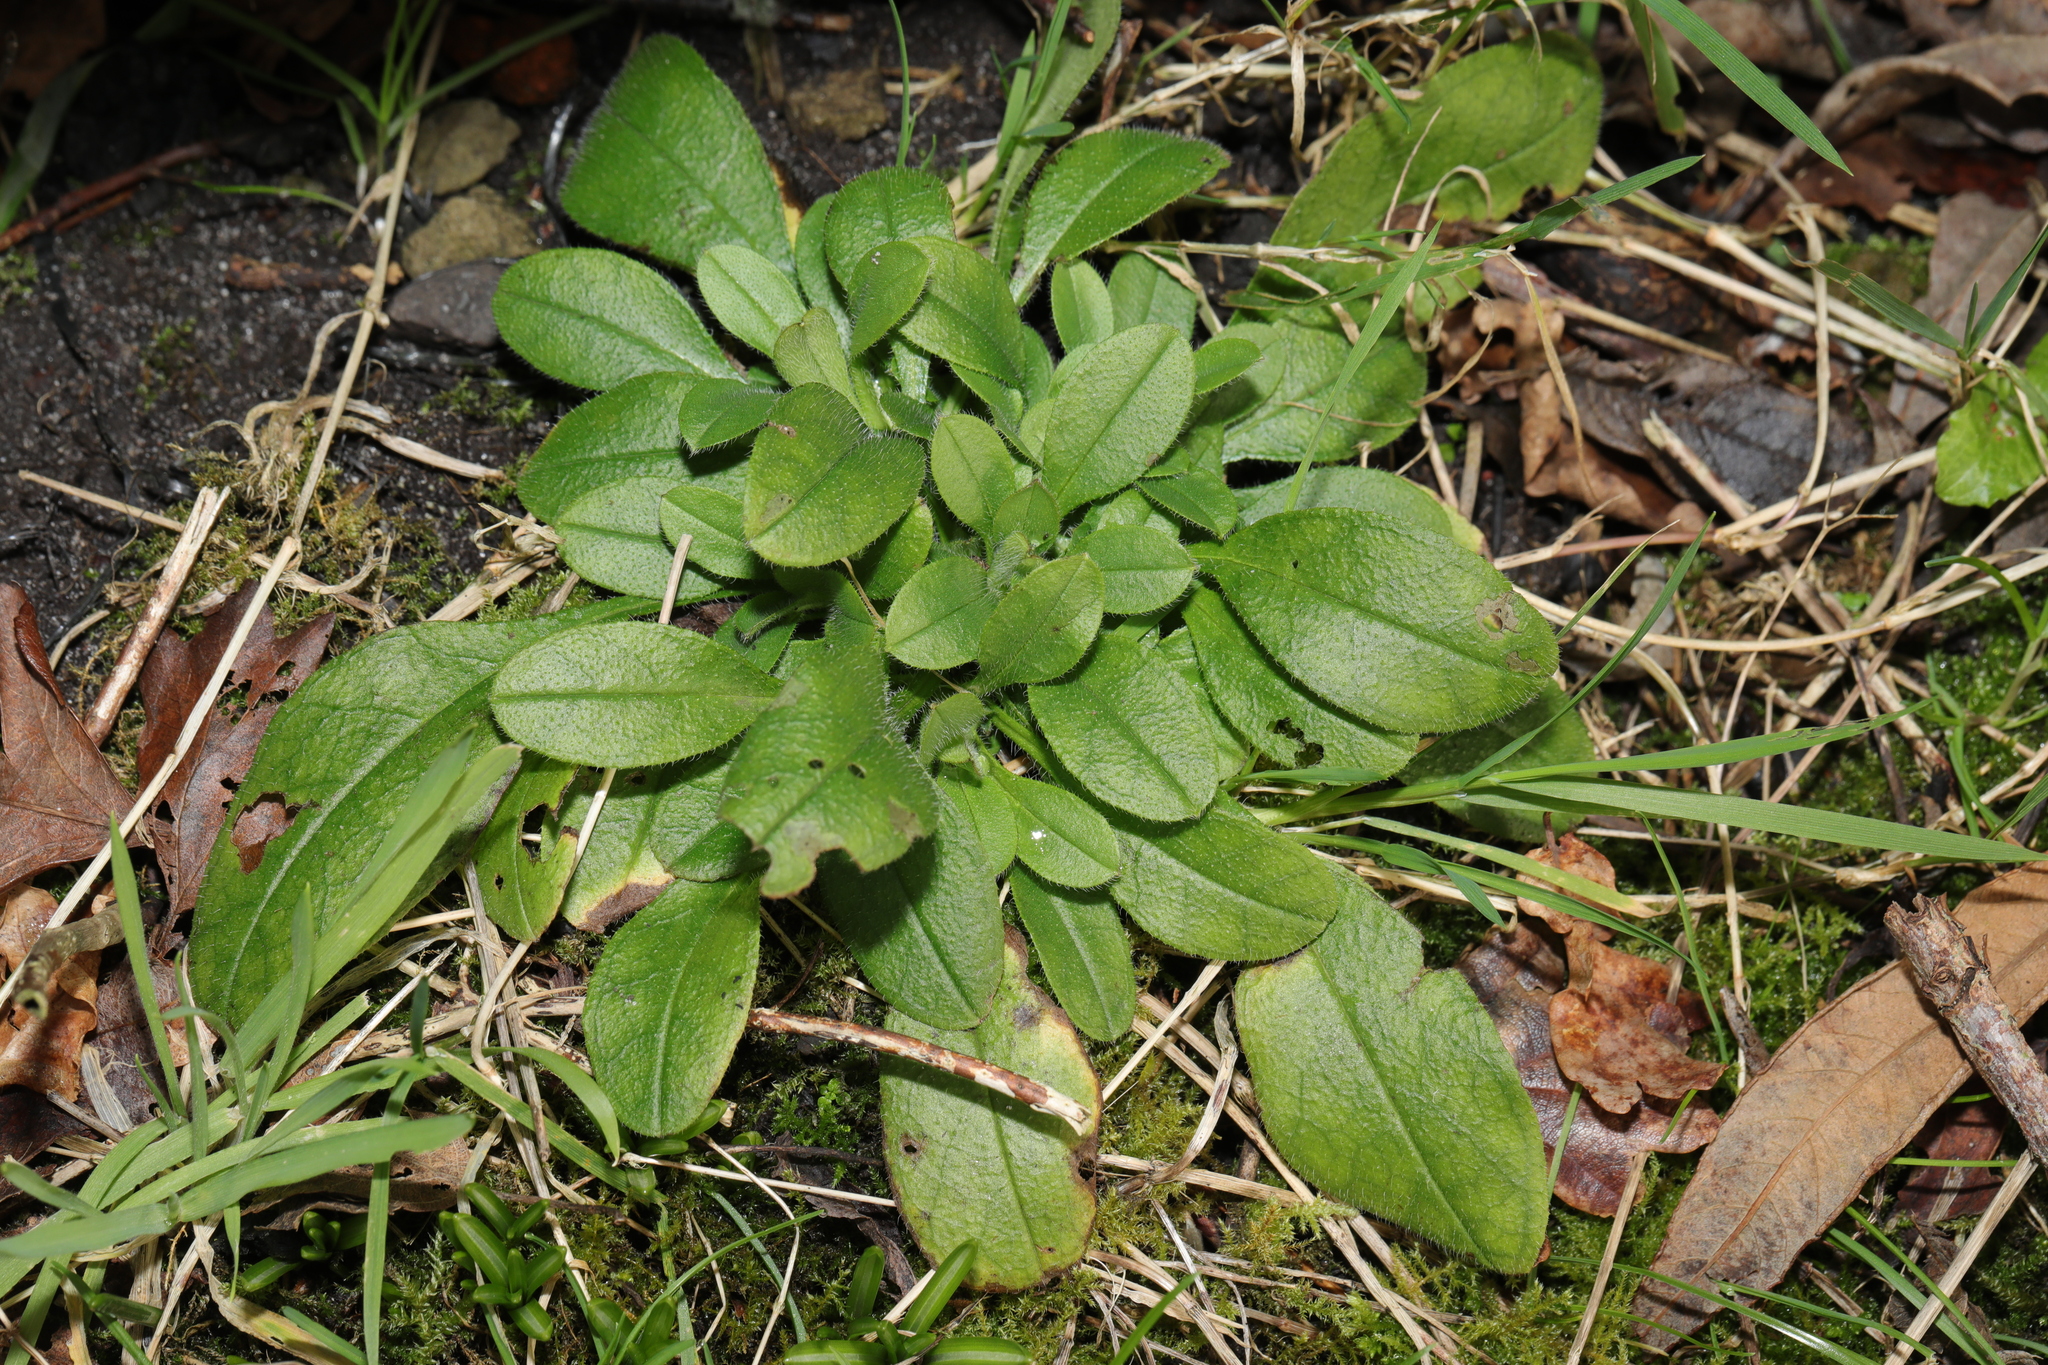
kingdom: Plantae
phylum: Tracheophyta
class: Magnoliopsida
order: Boraginales
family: Boraginaceae
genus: Myosotis
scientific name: Myosotis sylvatica
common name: Wood forget-me-not
